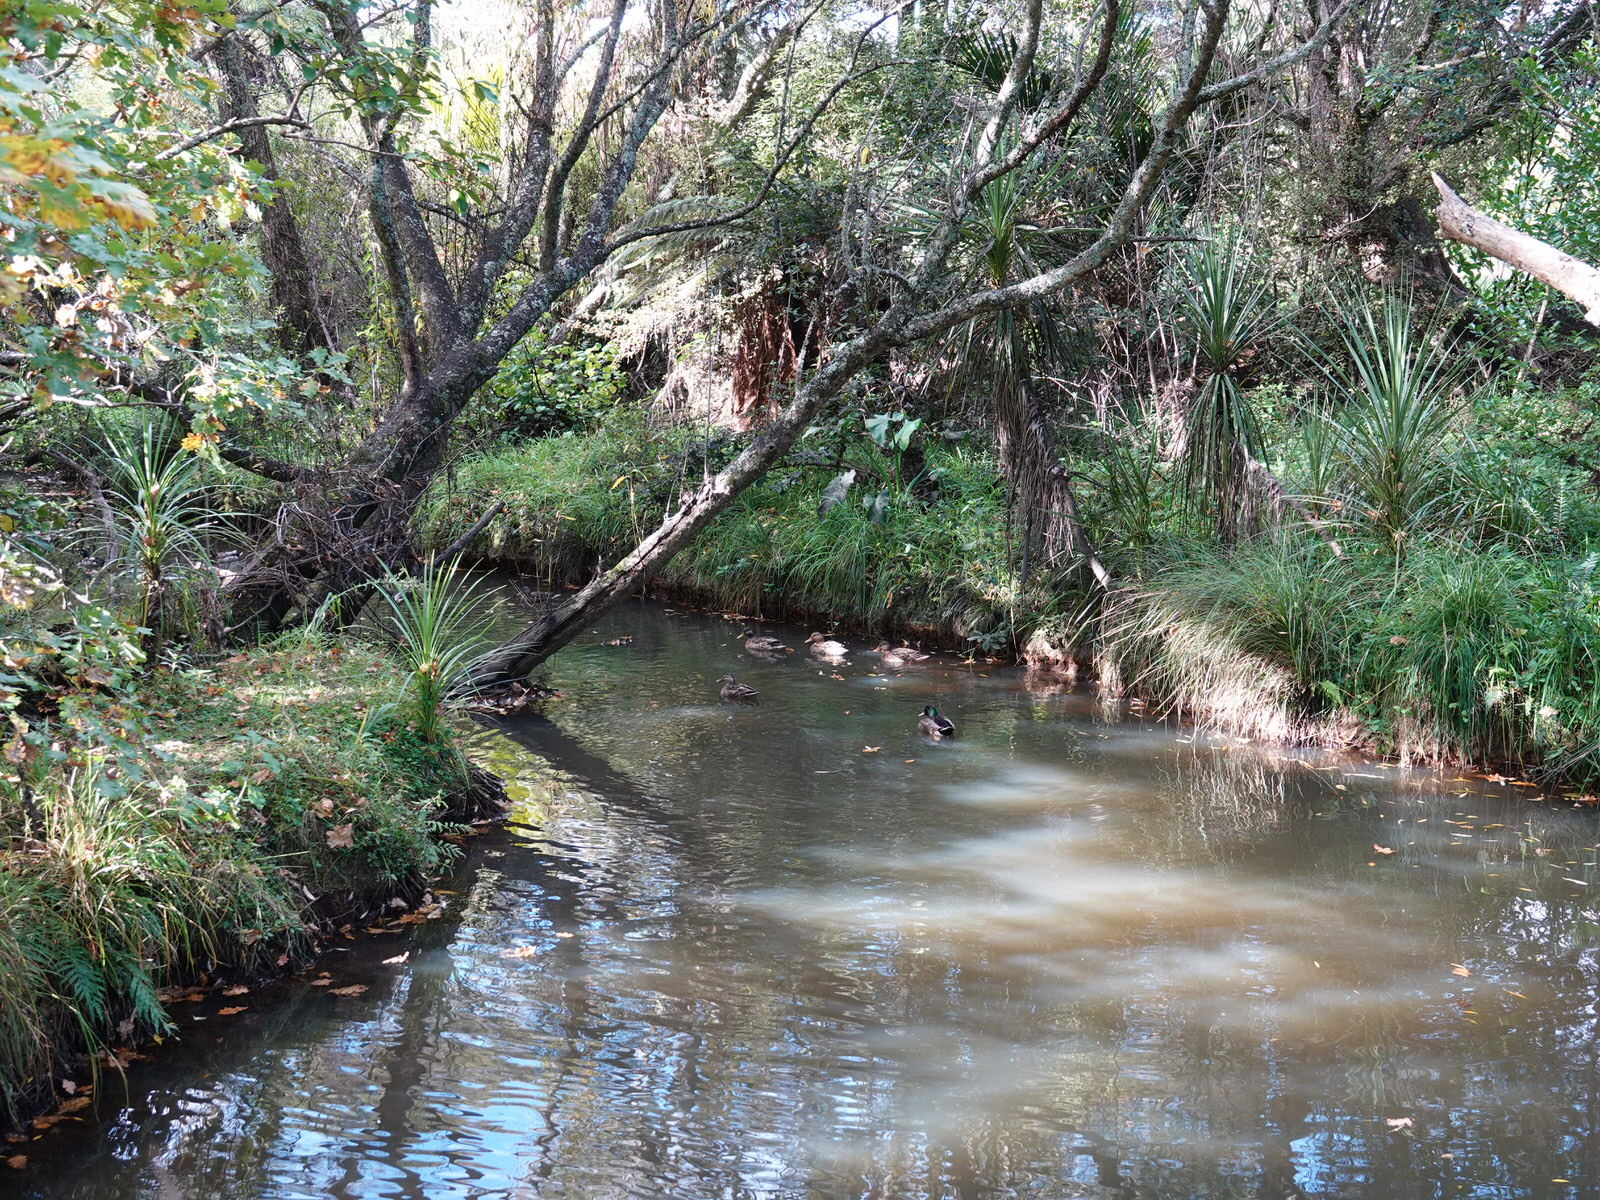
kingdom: Animalia
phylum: Chordata
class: Aves
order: Anseriformes
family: Anatidae
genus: Anas
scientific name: Anas platyrhynchos
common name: Mallard
